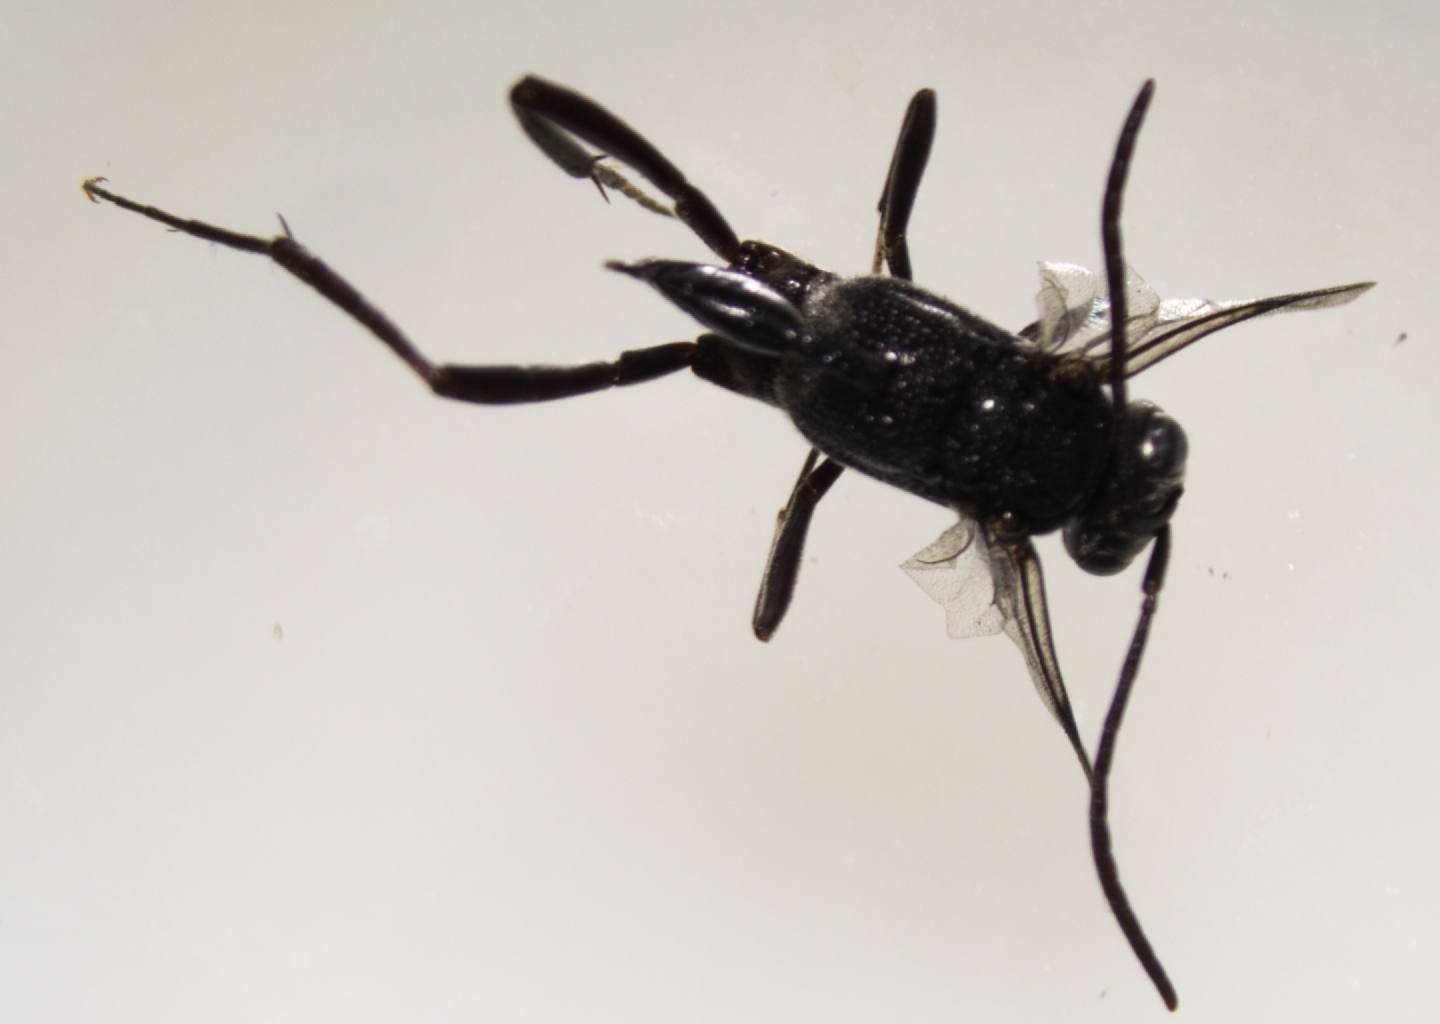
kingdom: Animalia
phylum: Arthropoda
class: Insecta
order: Hymenoptera
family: Evaniidae
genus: Evania
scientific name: Evania appendigaster
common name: Ensign wasp
